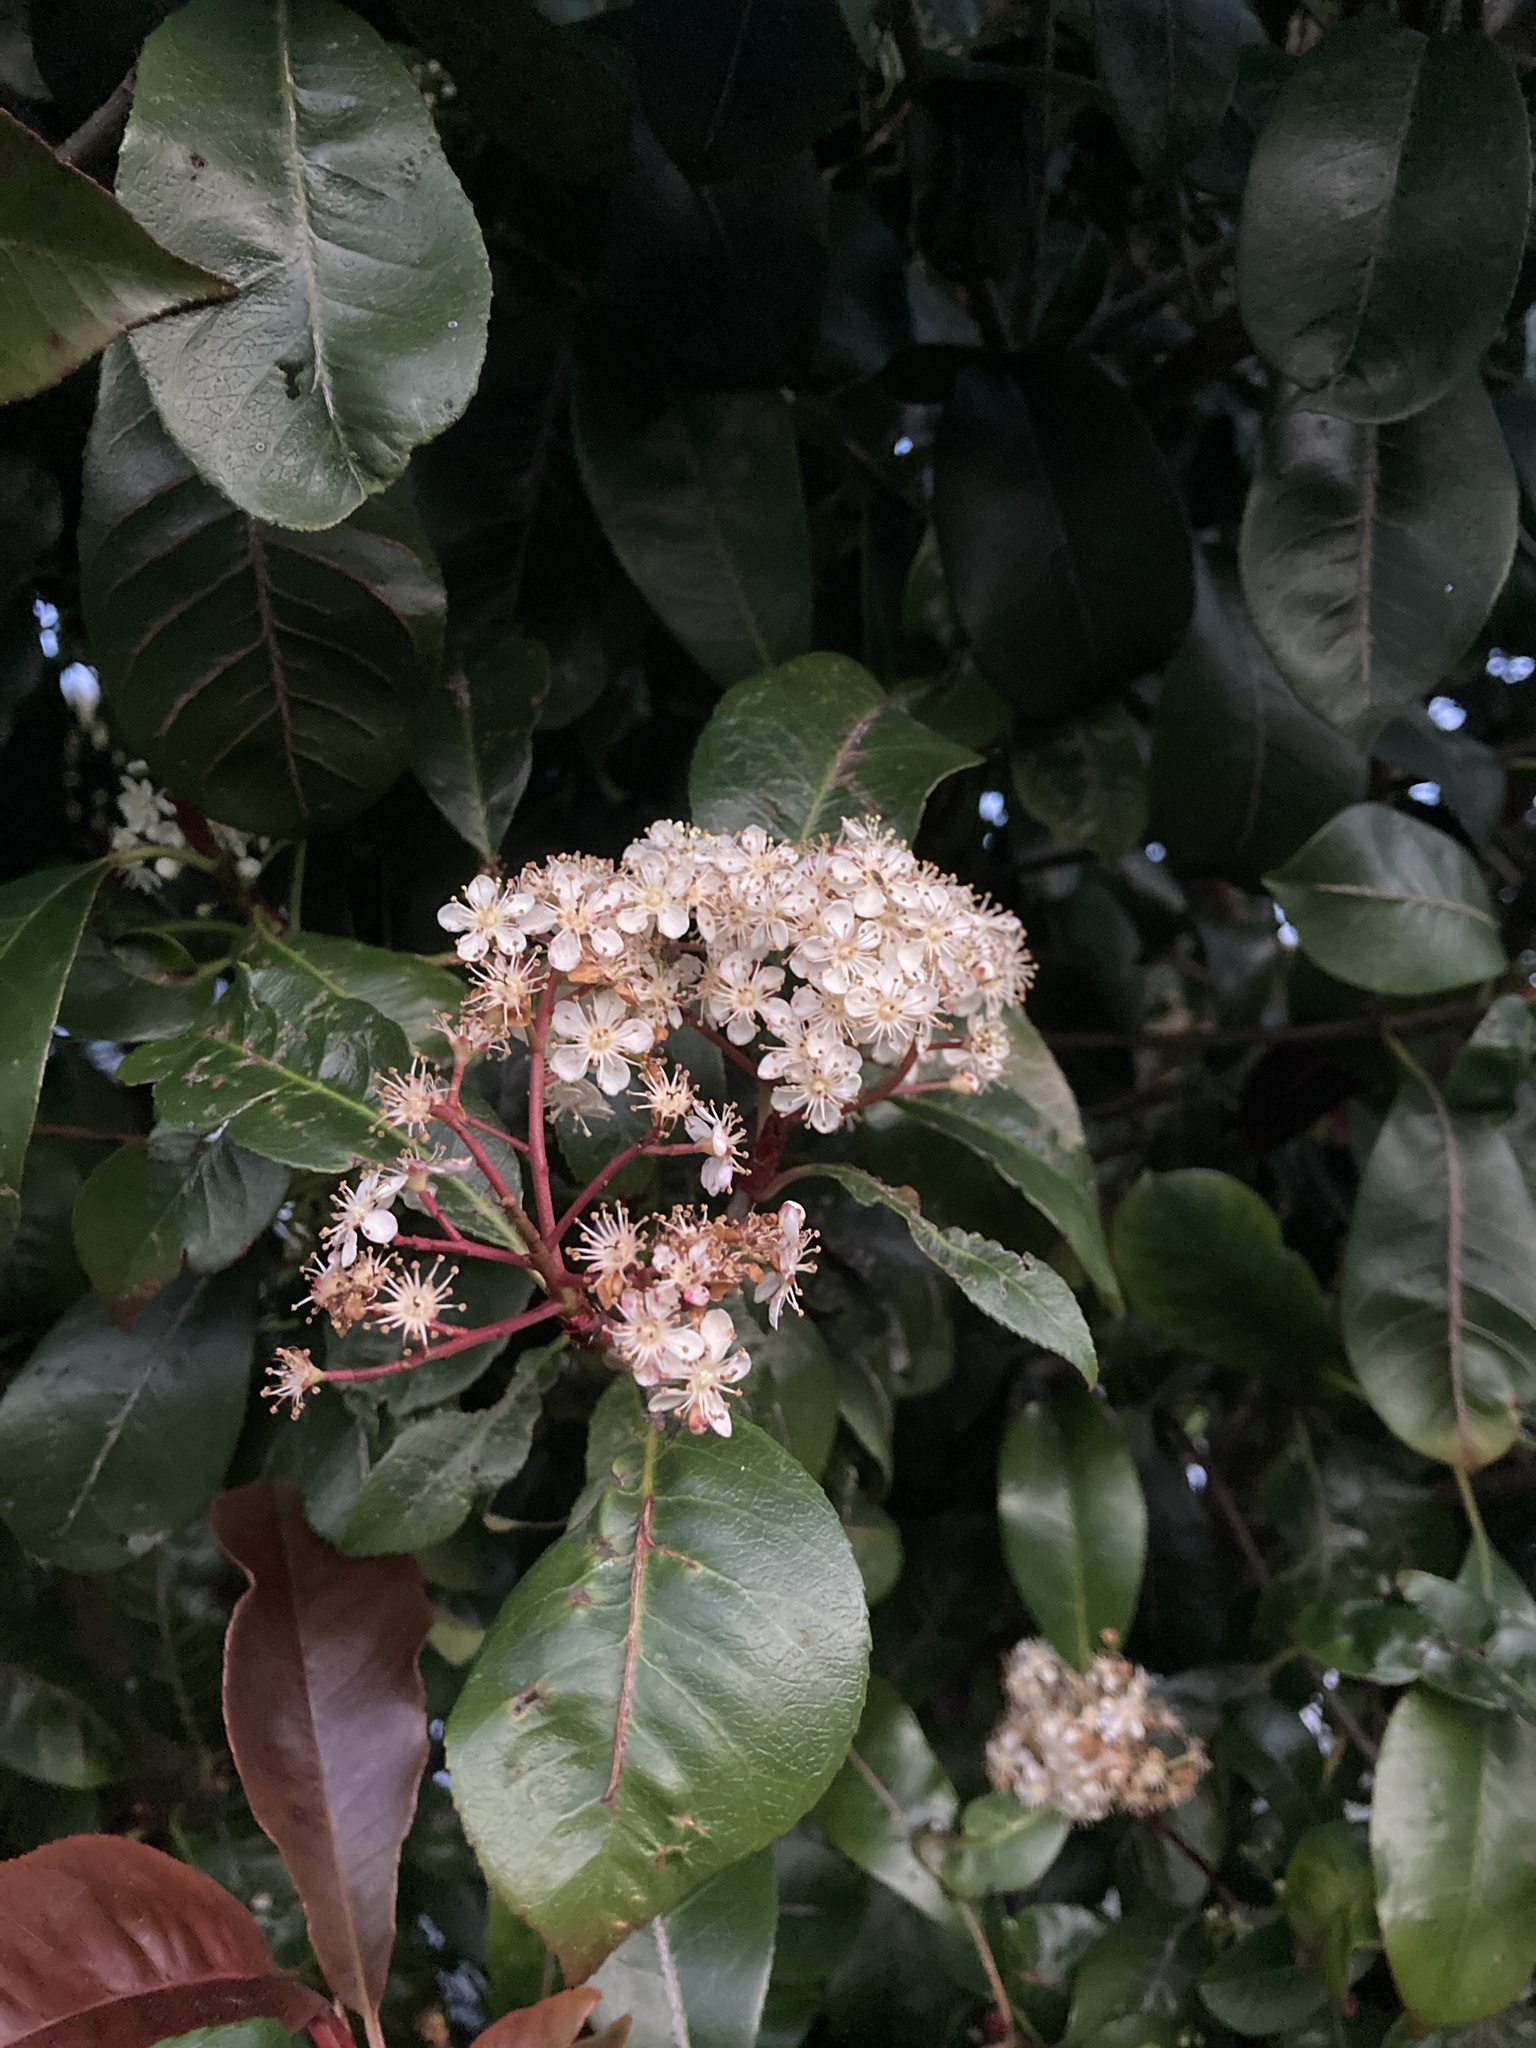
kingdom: Plantae
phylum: Tracheophyta
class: Magnoliopsida
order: Rosales
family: Rosaceae
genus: Rhaphiolepis
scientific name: Rhaphiolepis indica
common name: India-hawthorn
